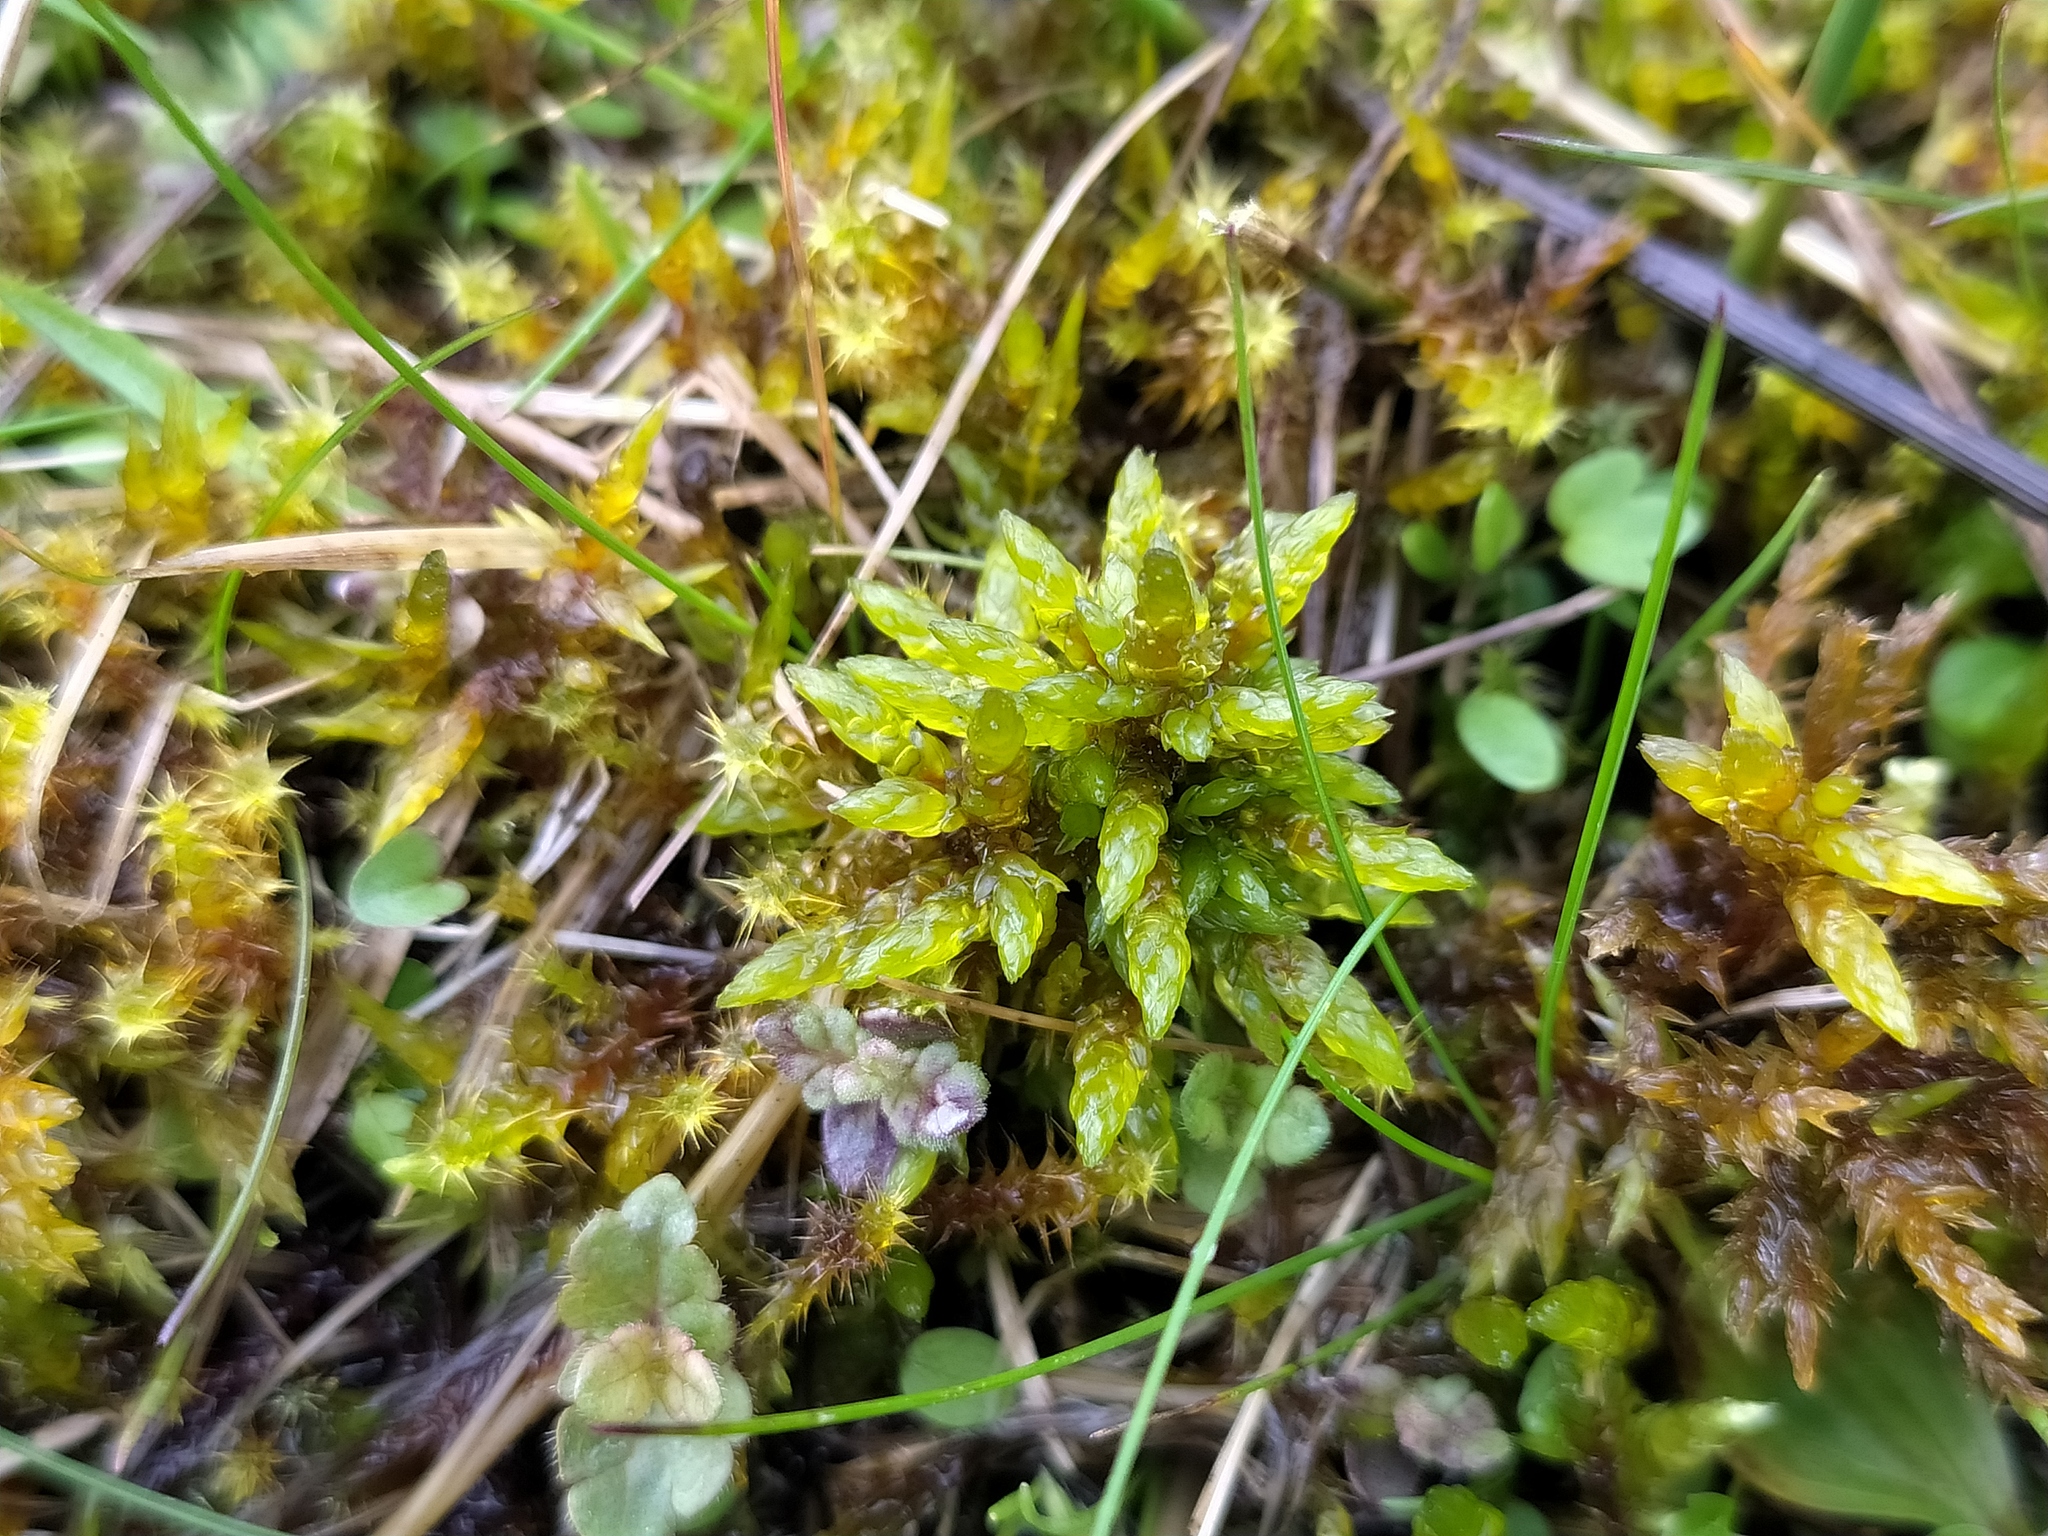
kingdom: Plantae
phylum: Bryophyta
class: Bryopsida
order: Hypnales
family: Climaciaceae
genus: Climacium
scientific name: Climacium dendroides
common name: Northern tree moss
